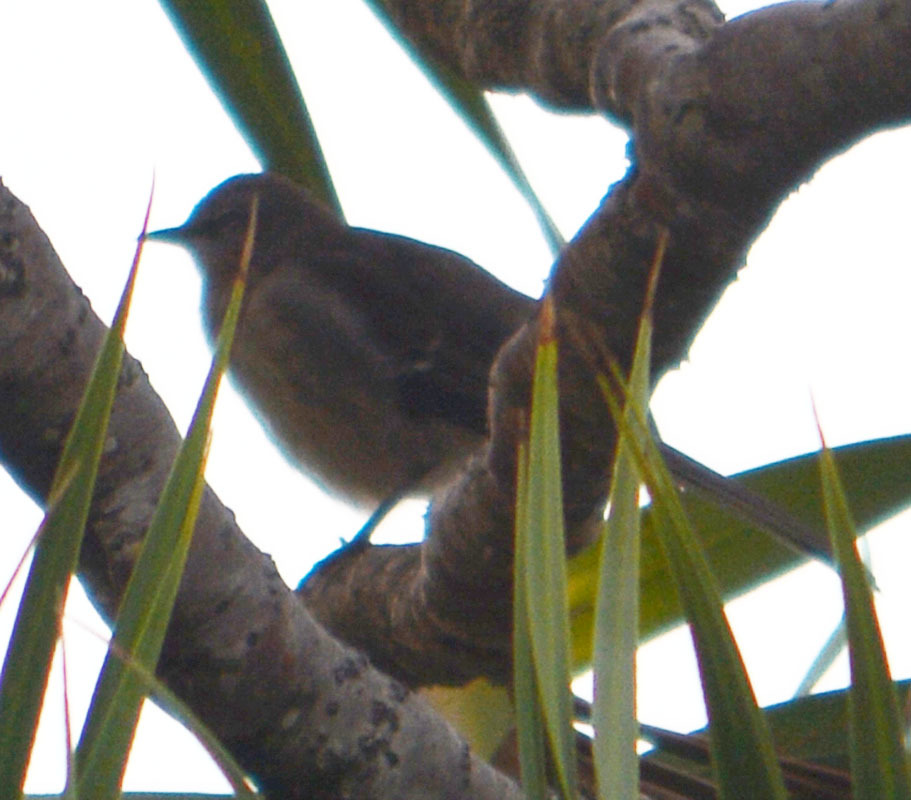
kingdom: Animalia
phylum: Chordata
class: Aves
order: Passeriformes
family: Parulidae
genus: Setophaga
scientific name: Setophaga coronata
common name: Myrtle warbler
